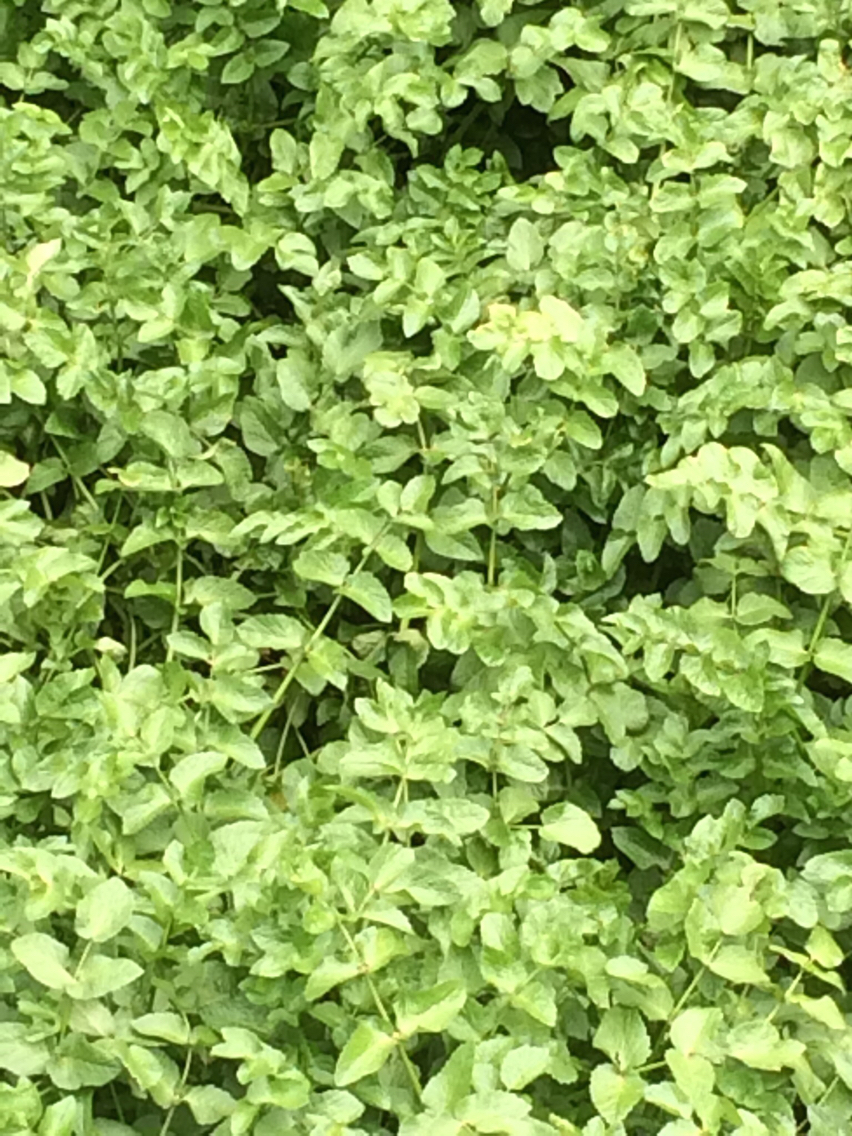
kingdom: Plantae
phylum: Tracheophyta
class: Magnoliopsida
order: Apiales
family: Apiaceae
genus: Helosciadium
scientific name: Helosciadium nodiflorum
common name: Fool's-watercress
